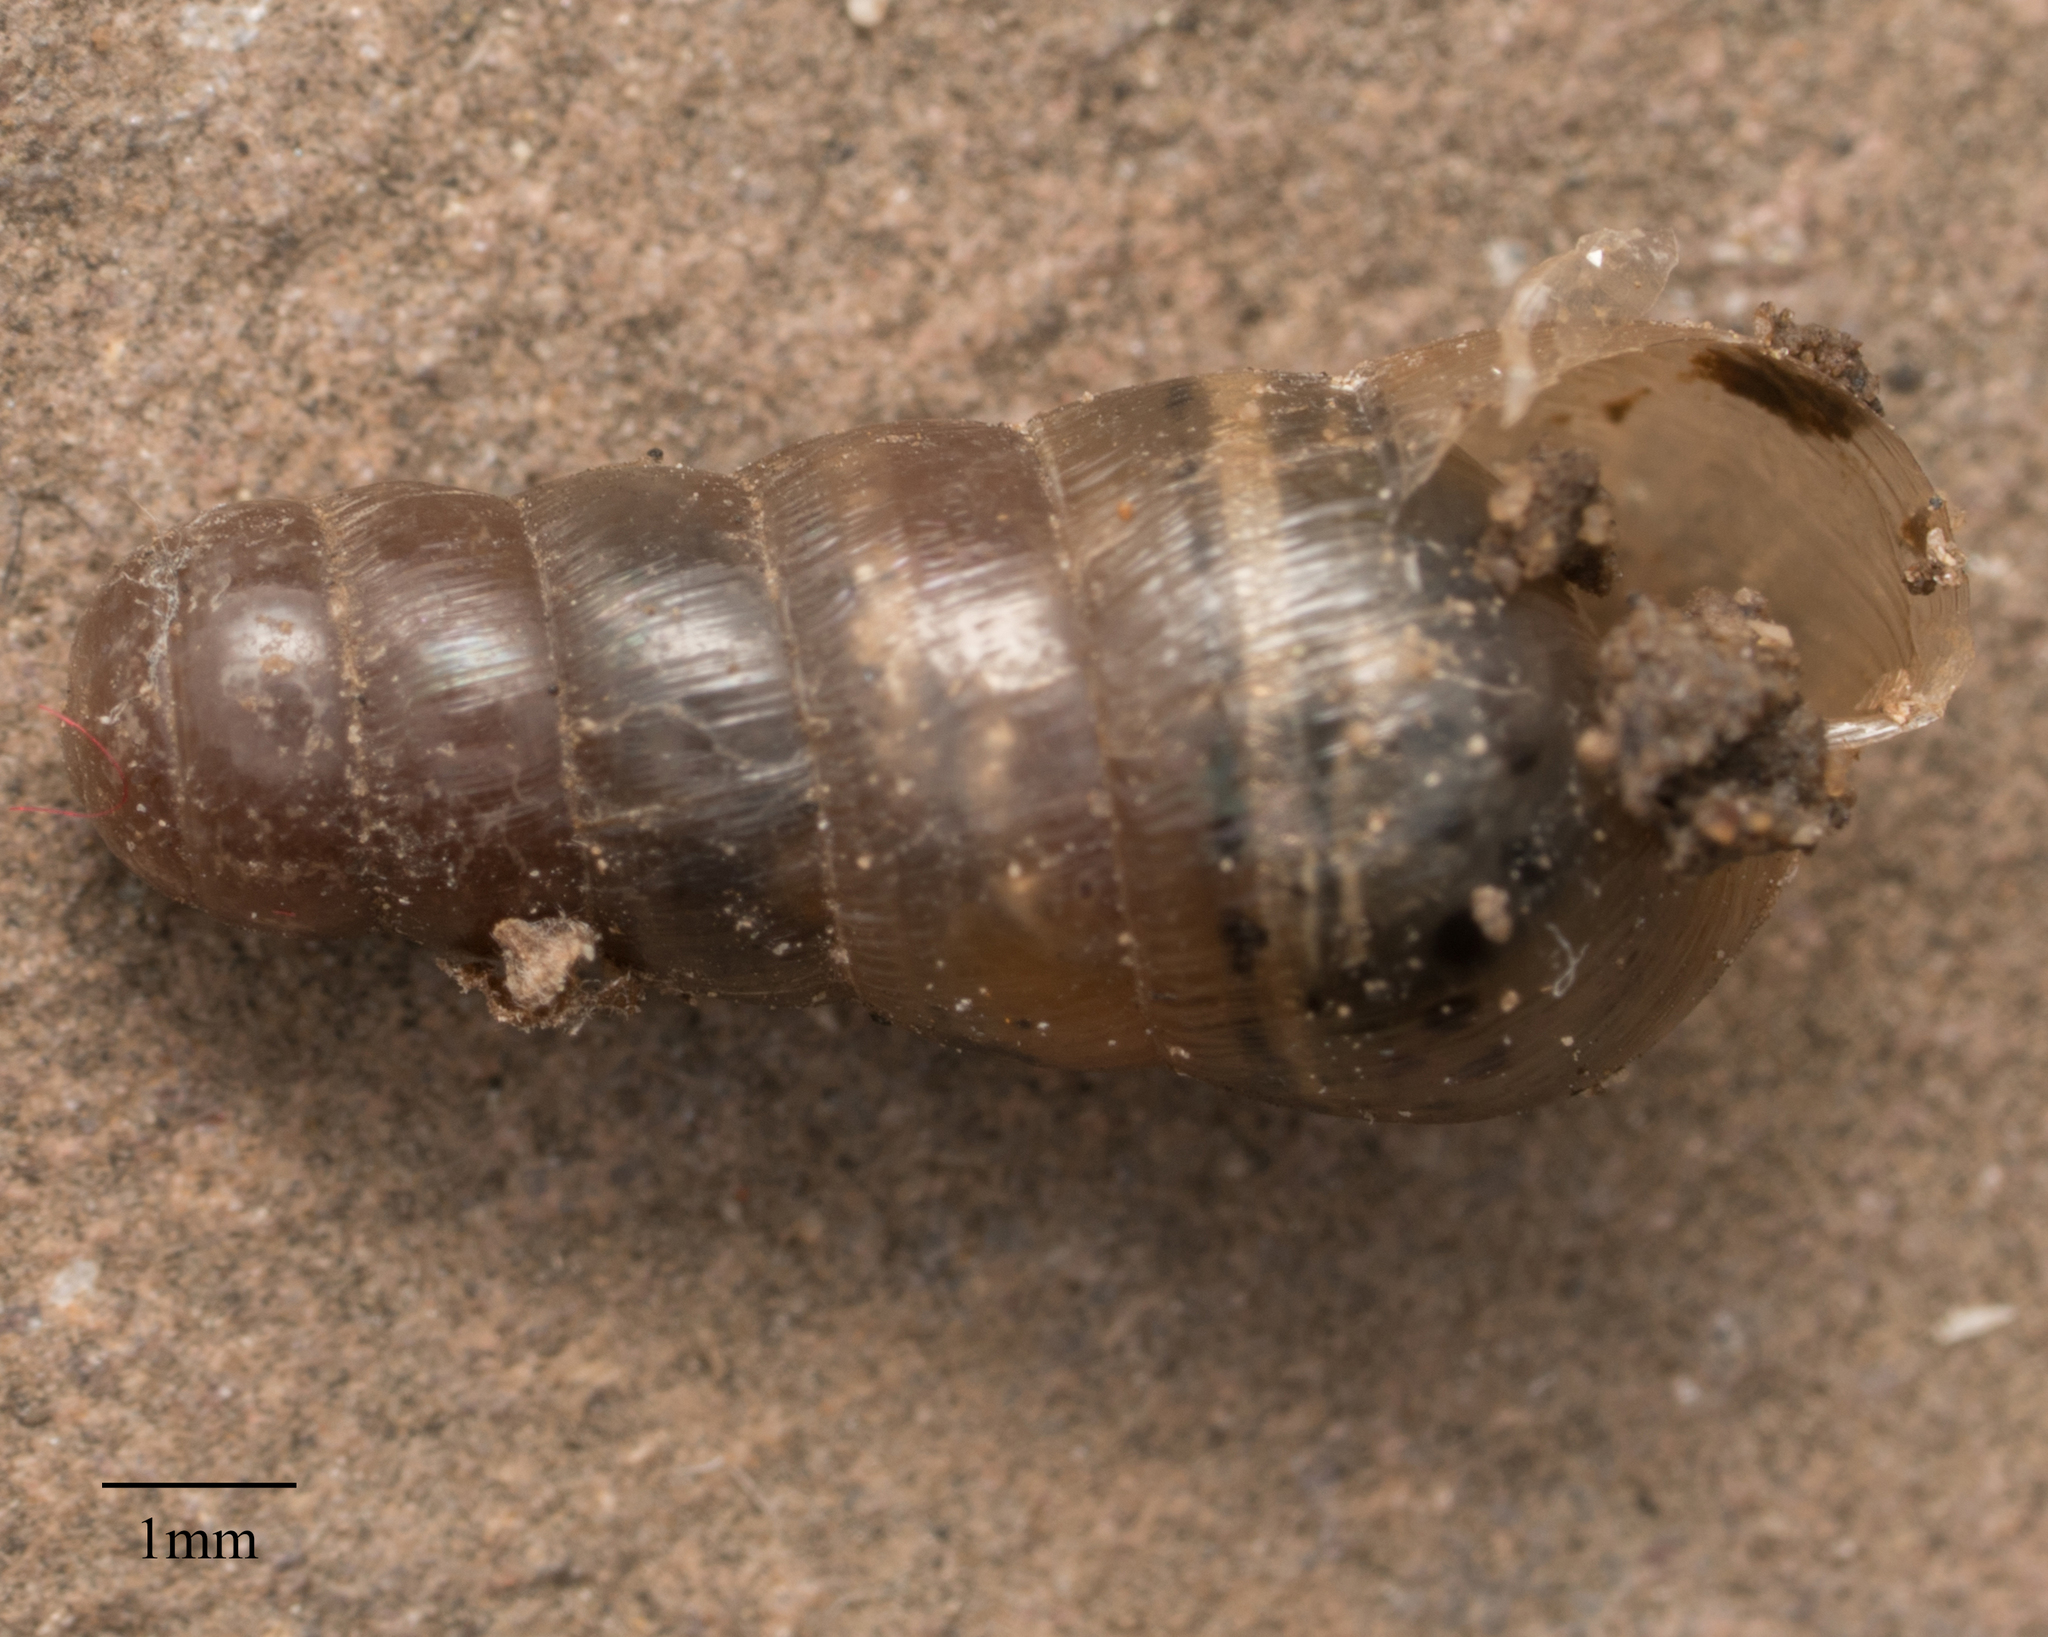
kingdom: Animalia
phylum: Mollusca
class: Gastropoda
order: Stylommatophora
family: Achatinidae
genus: Rumina
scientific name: Rumina decollata
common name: Decollate snail
